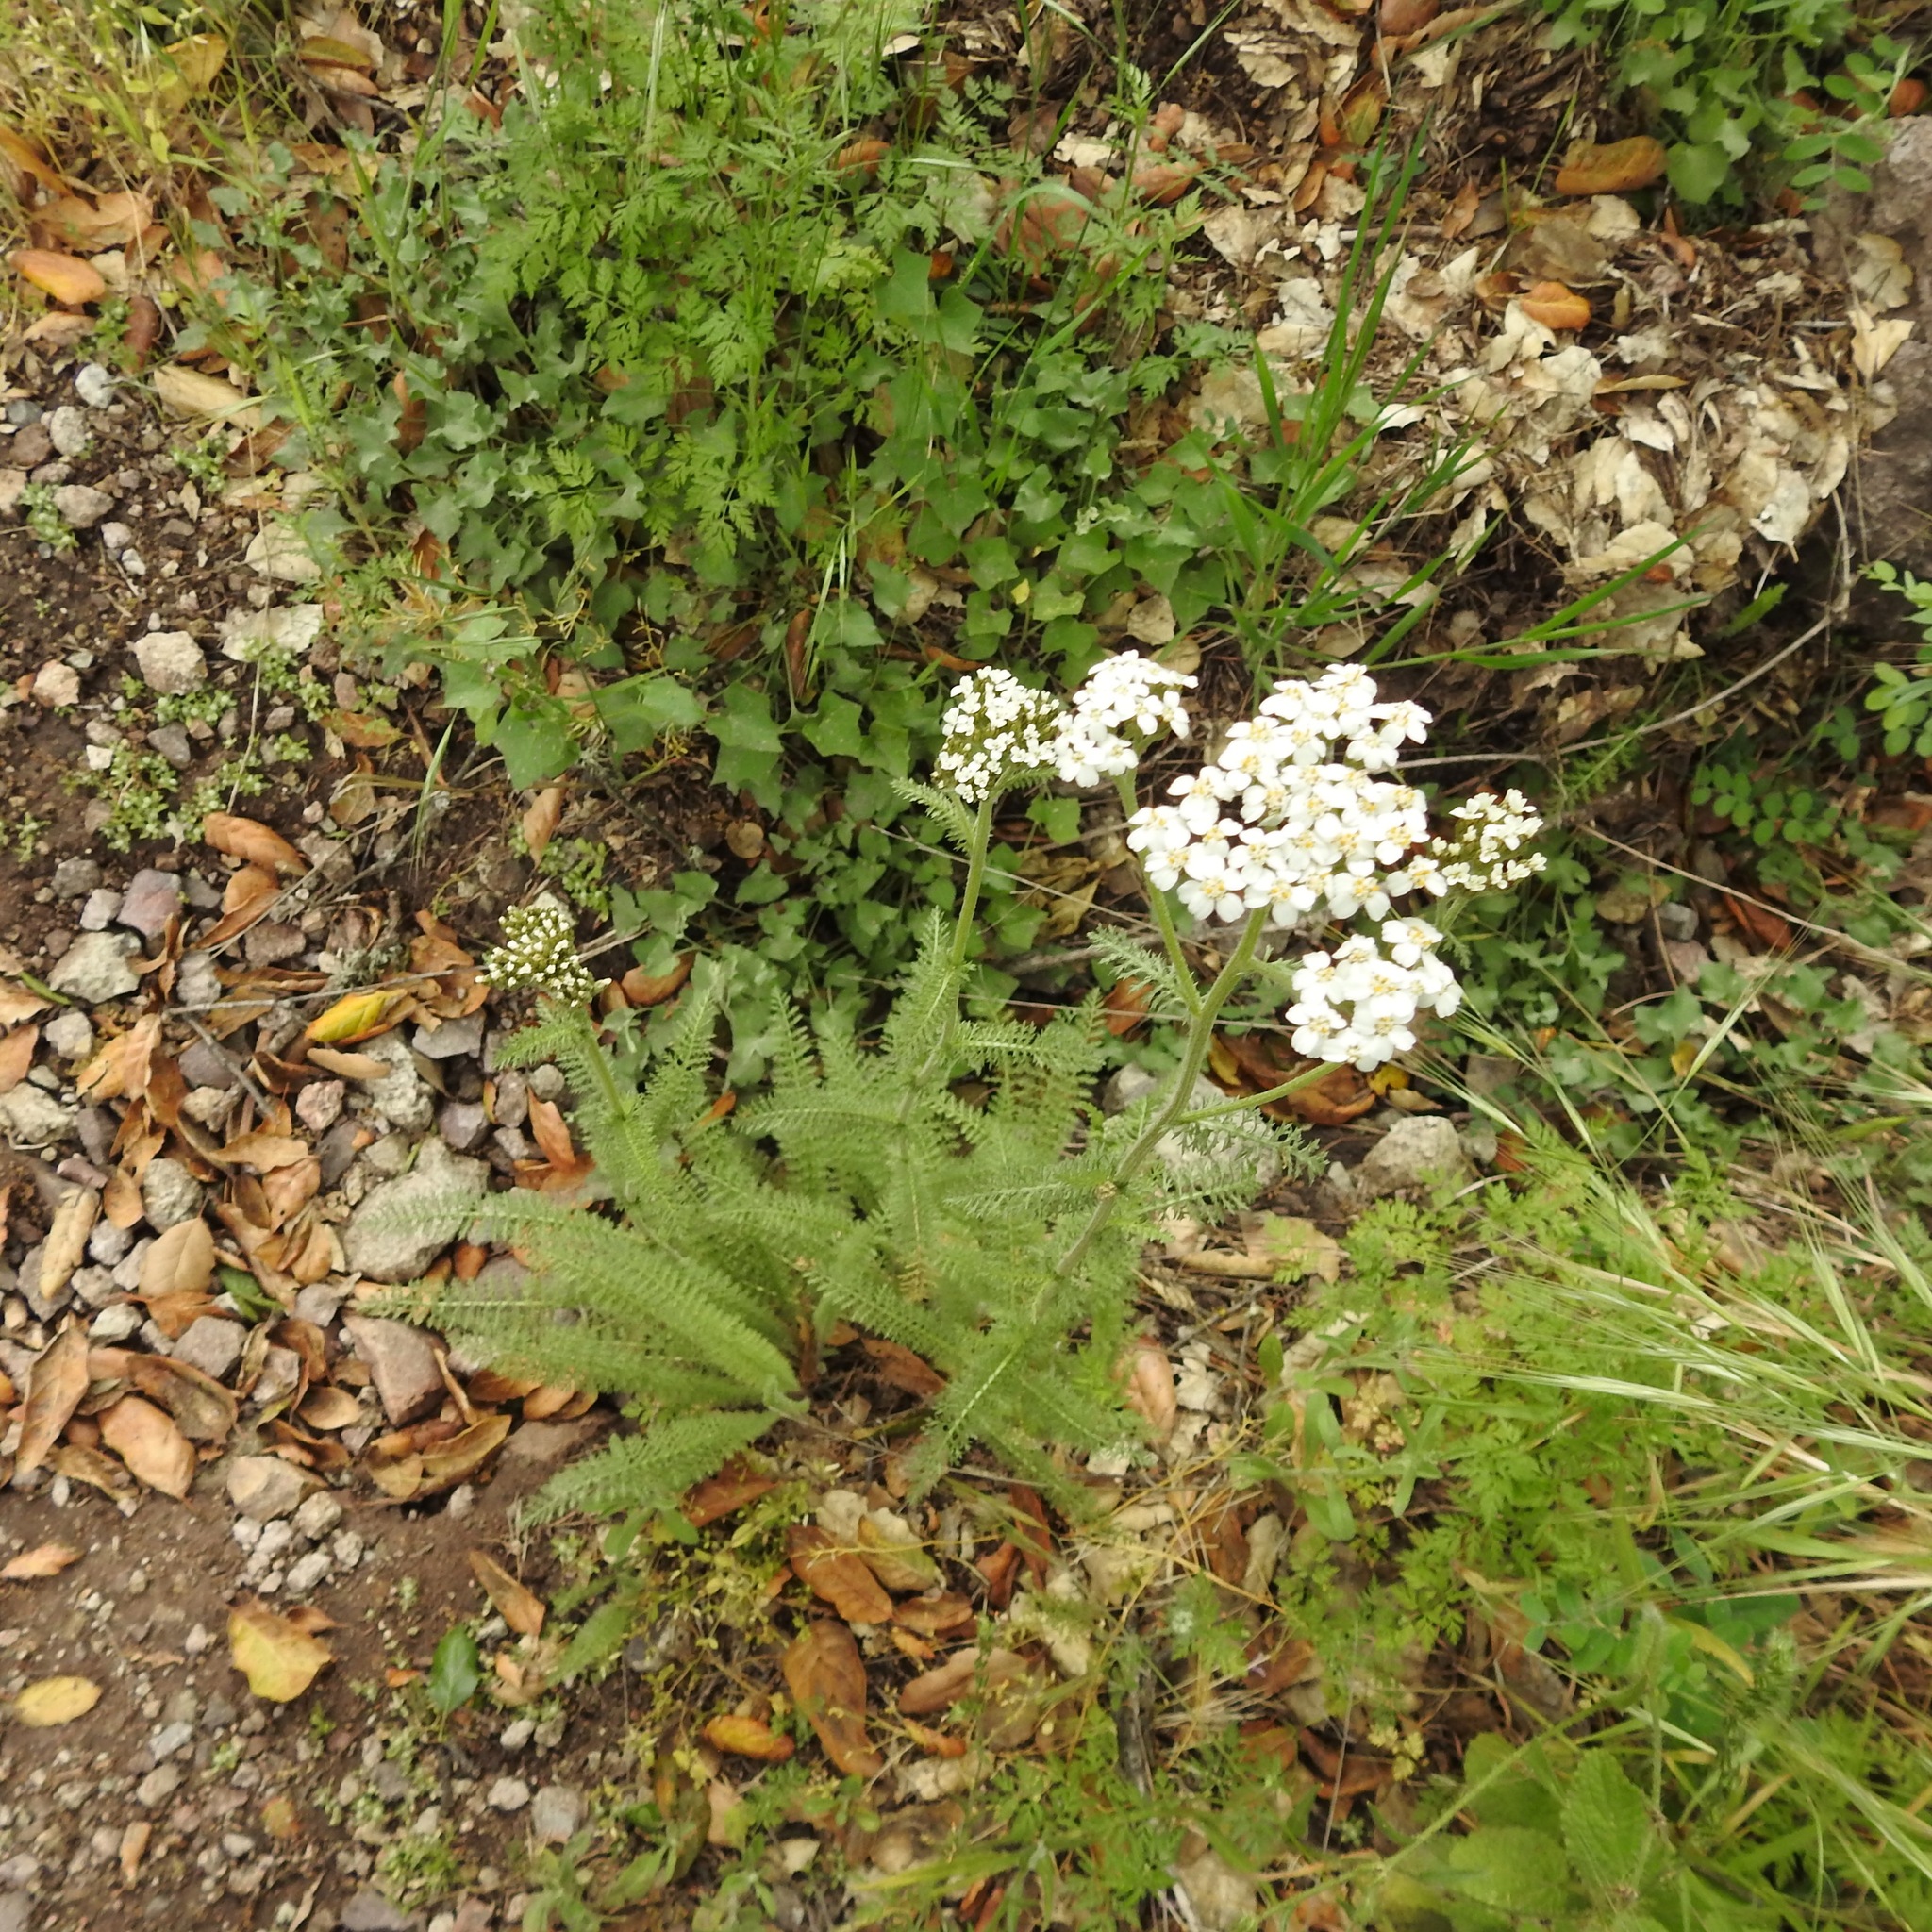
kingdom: Plantae
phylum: Tracheophyta
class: Magnoliopsida
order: Asterales
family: Asteraceae
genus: Achillea
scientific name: Achillea millefolium
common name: Yarrow
